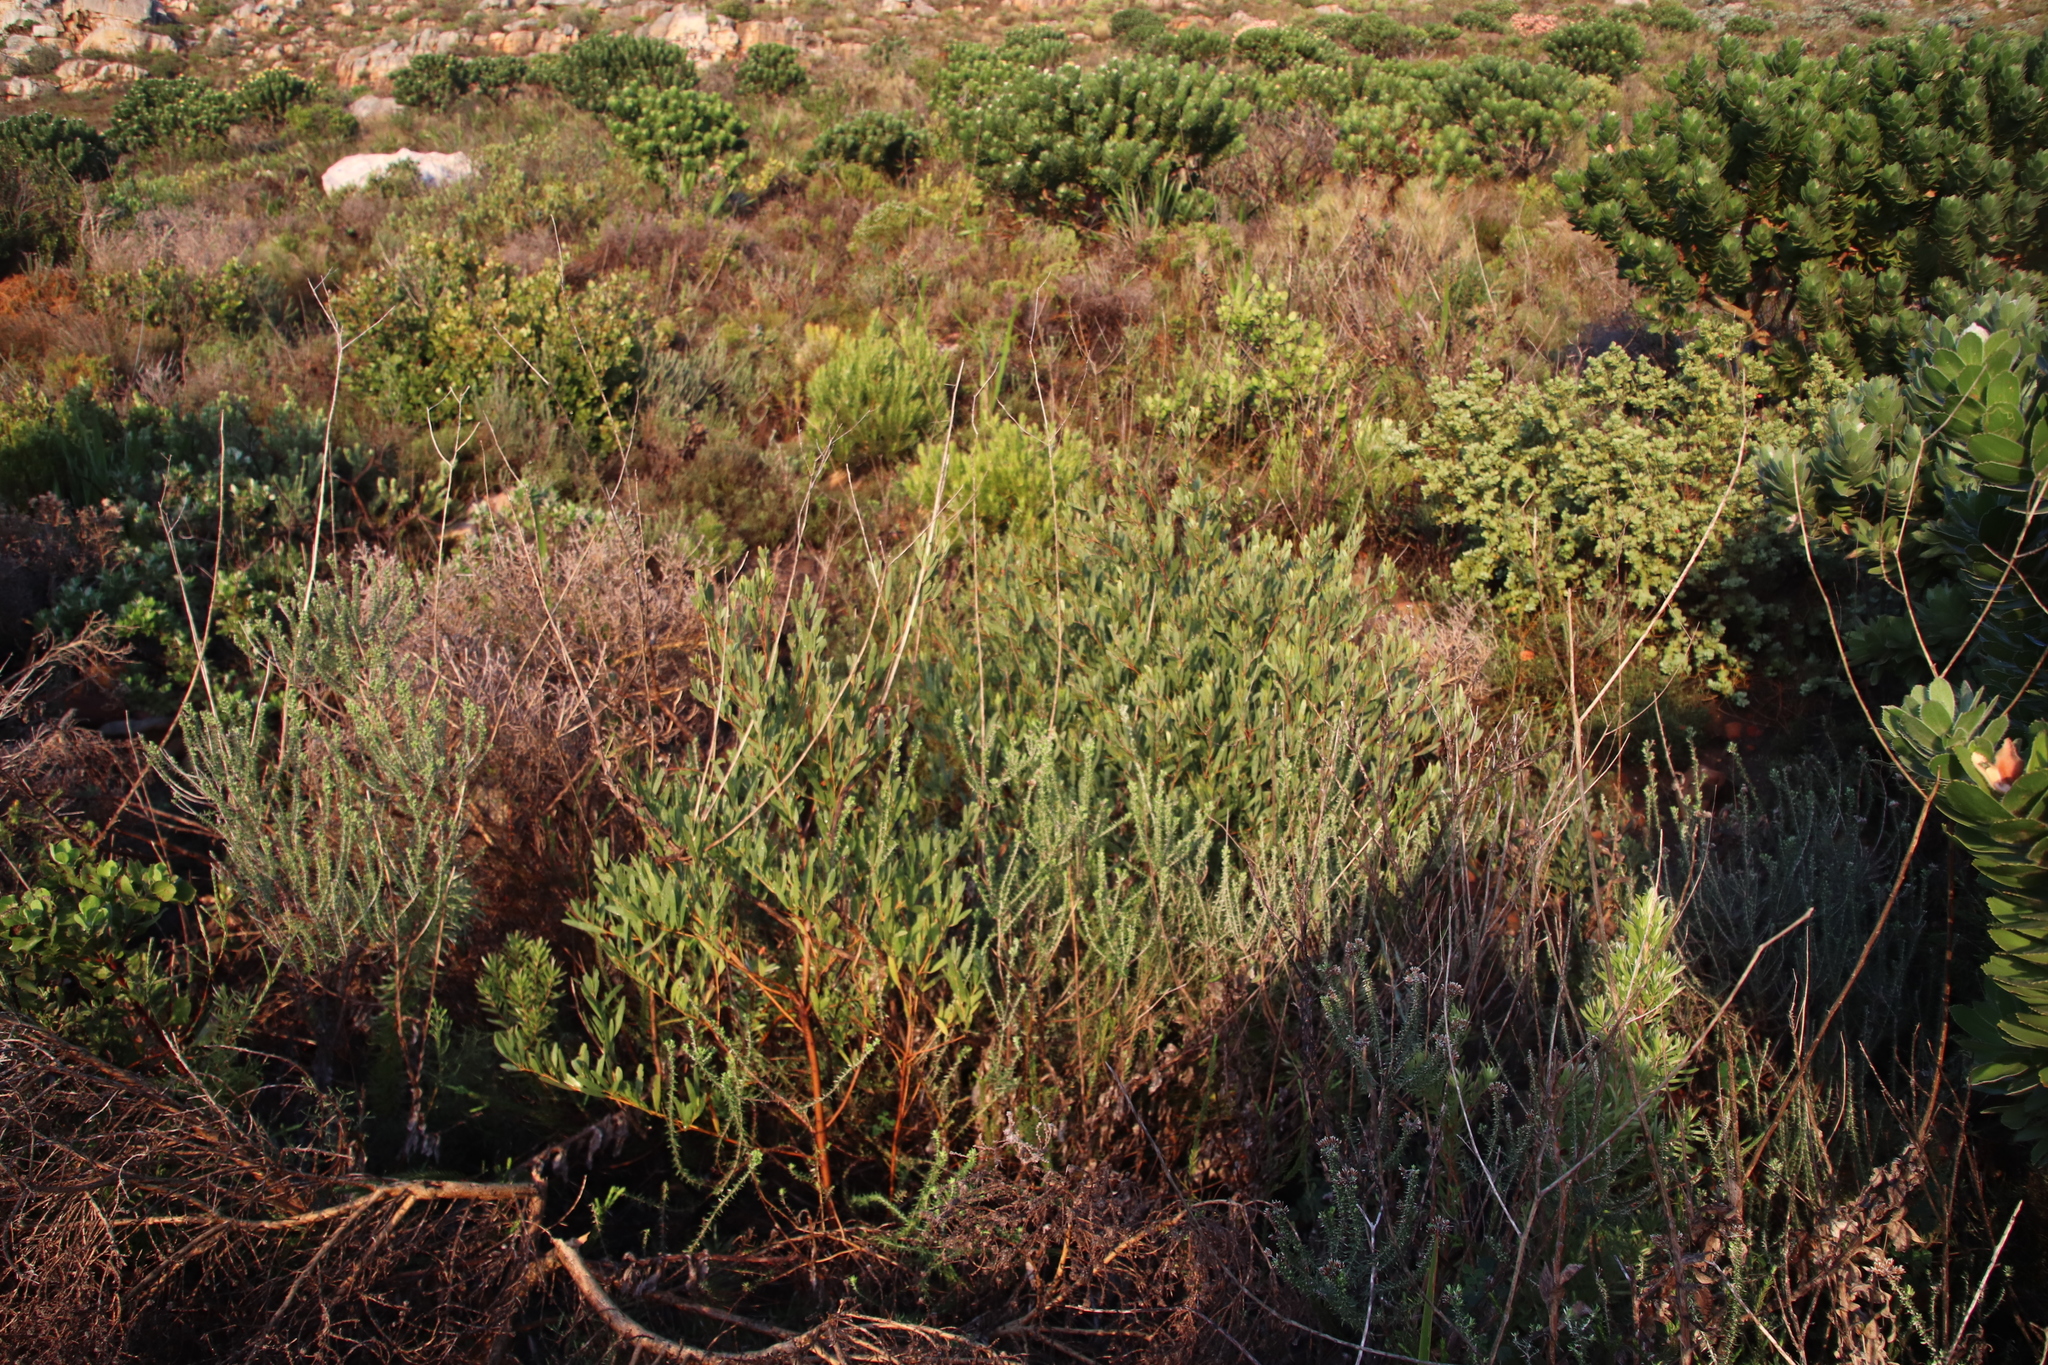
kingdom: Plantae
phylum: Tracheophyta
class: Magnoliopsida
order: Fabales
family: Fabaceae
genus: Acacia
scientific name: Acacia cyclops
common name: Coastal wattle
